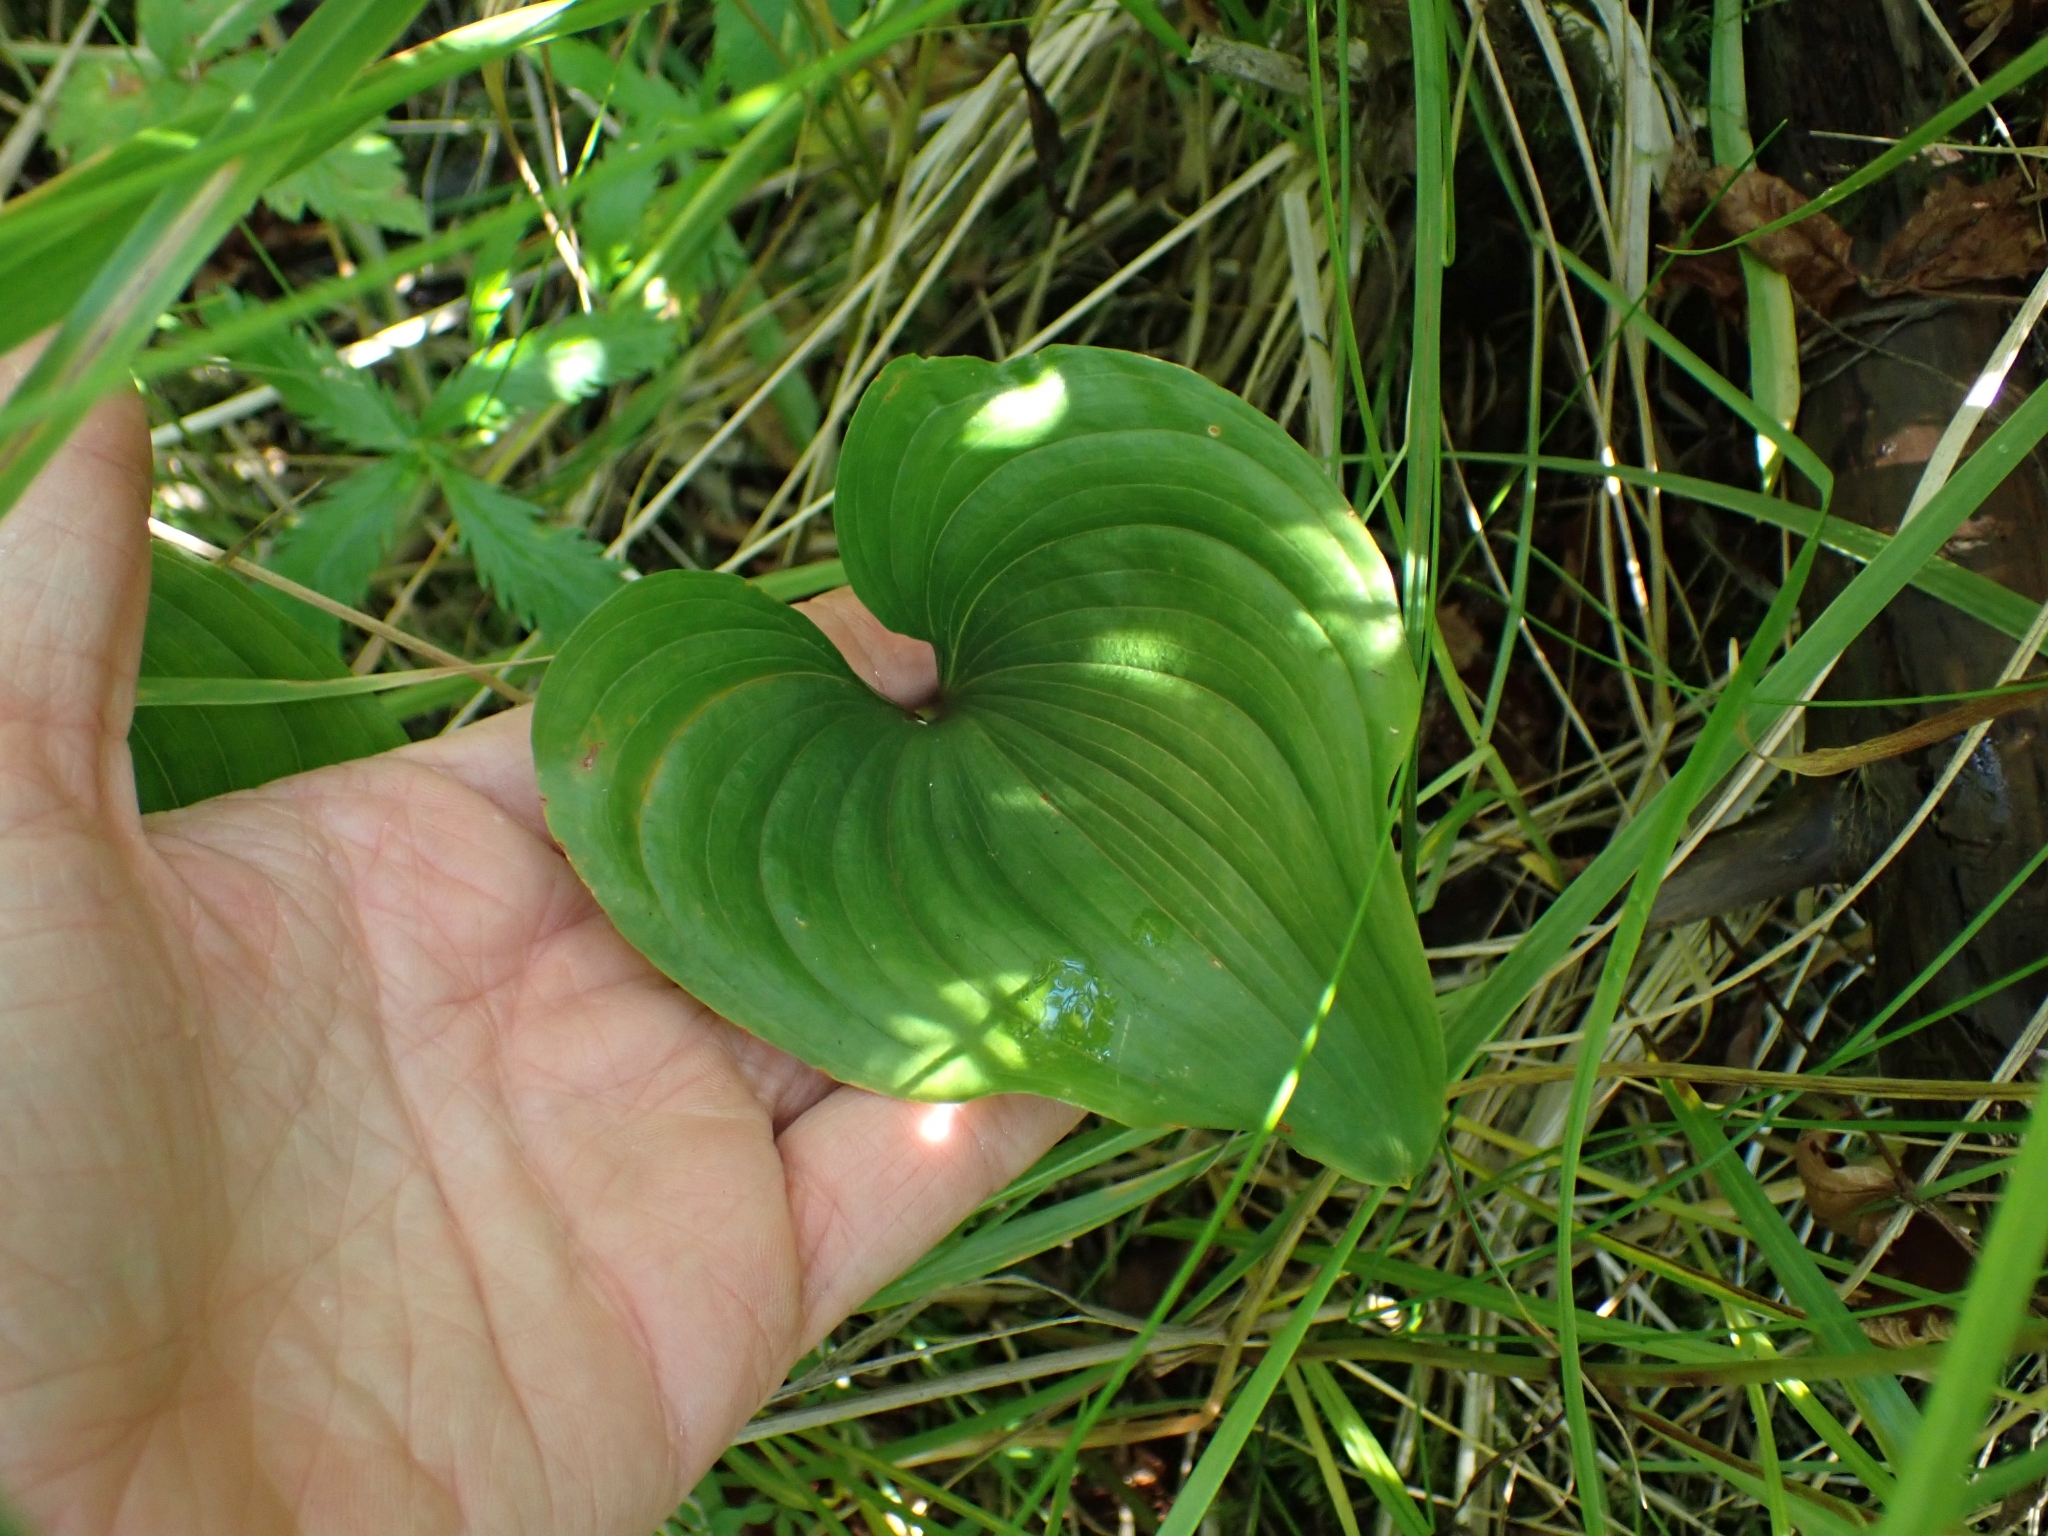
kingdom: Plantae
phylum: Tracheophyta
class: Liliopsida
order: Asparagales
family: Asparagaceae
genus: Maianthemum
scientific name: Maianthemum dilatatum
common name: False lily-of-the-valley
